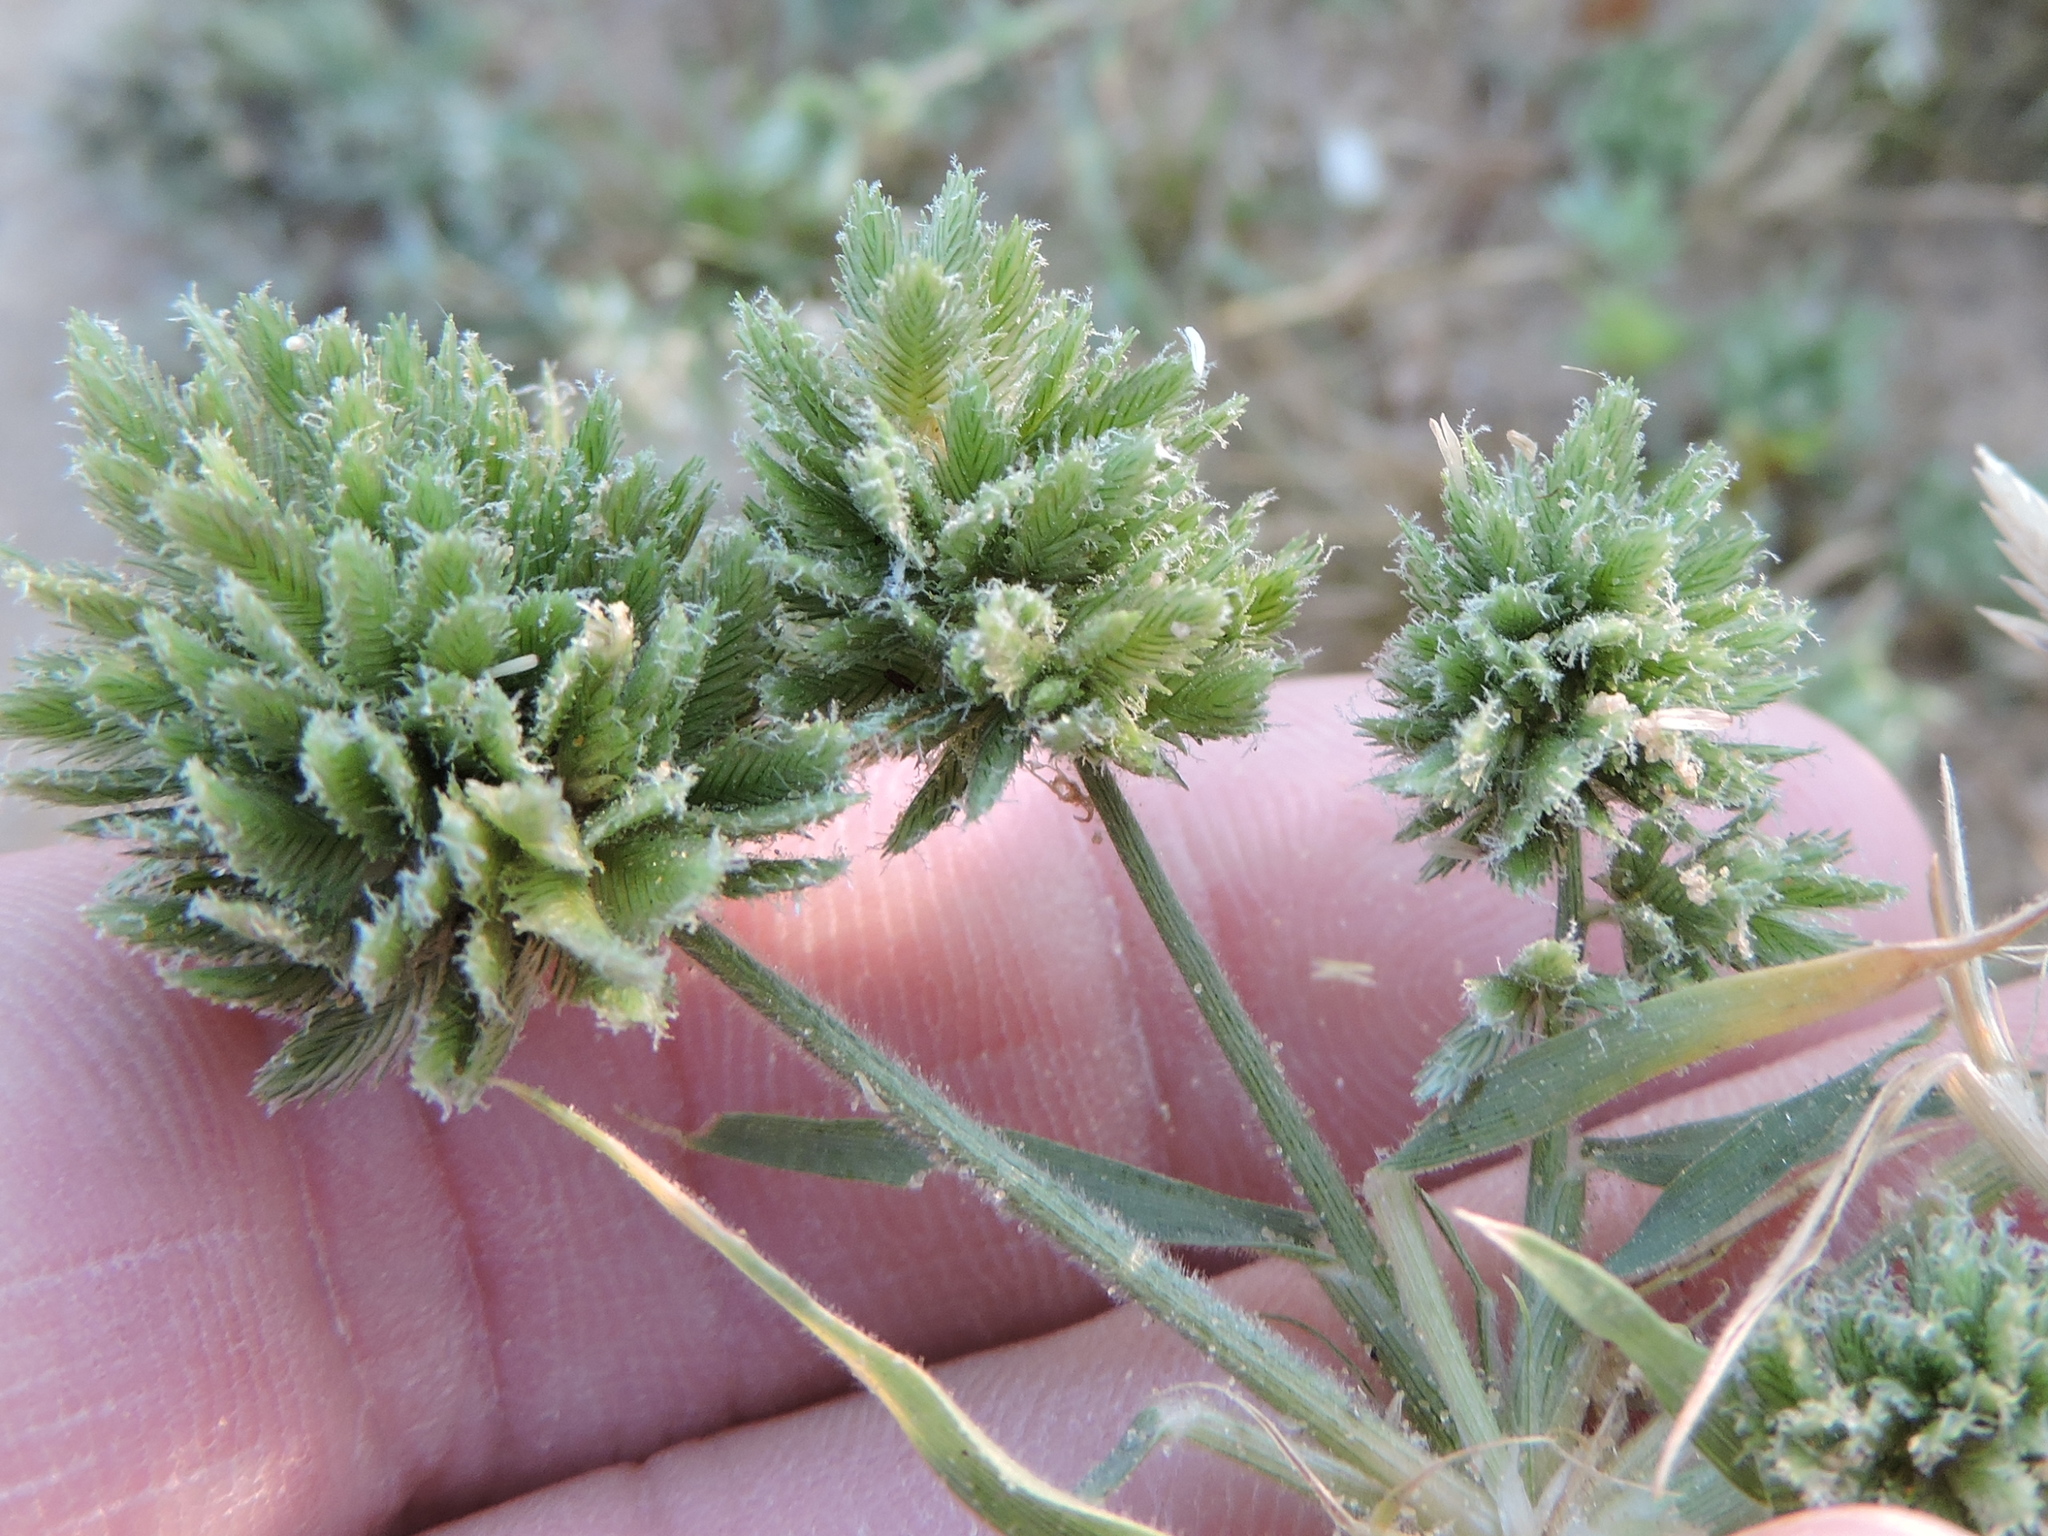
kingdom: Plantae
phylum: Tracheophyta
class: Liliopsida
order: Poales
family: Poaceae
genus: Eragrostis
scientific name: Eragrostis reptans
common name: Creeping love grass
